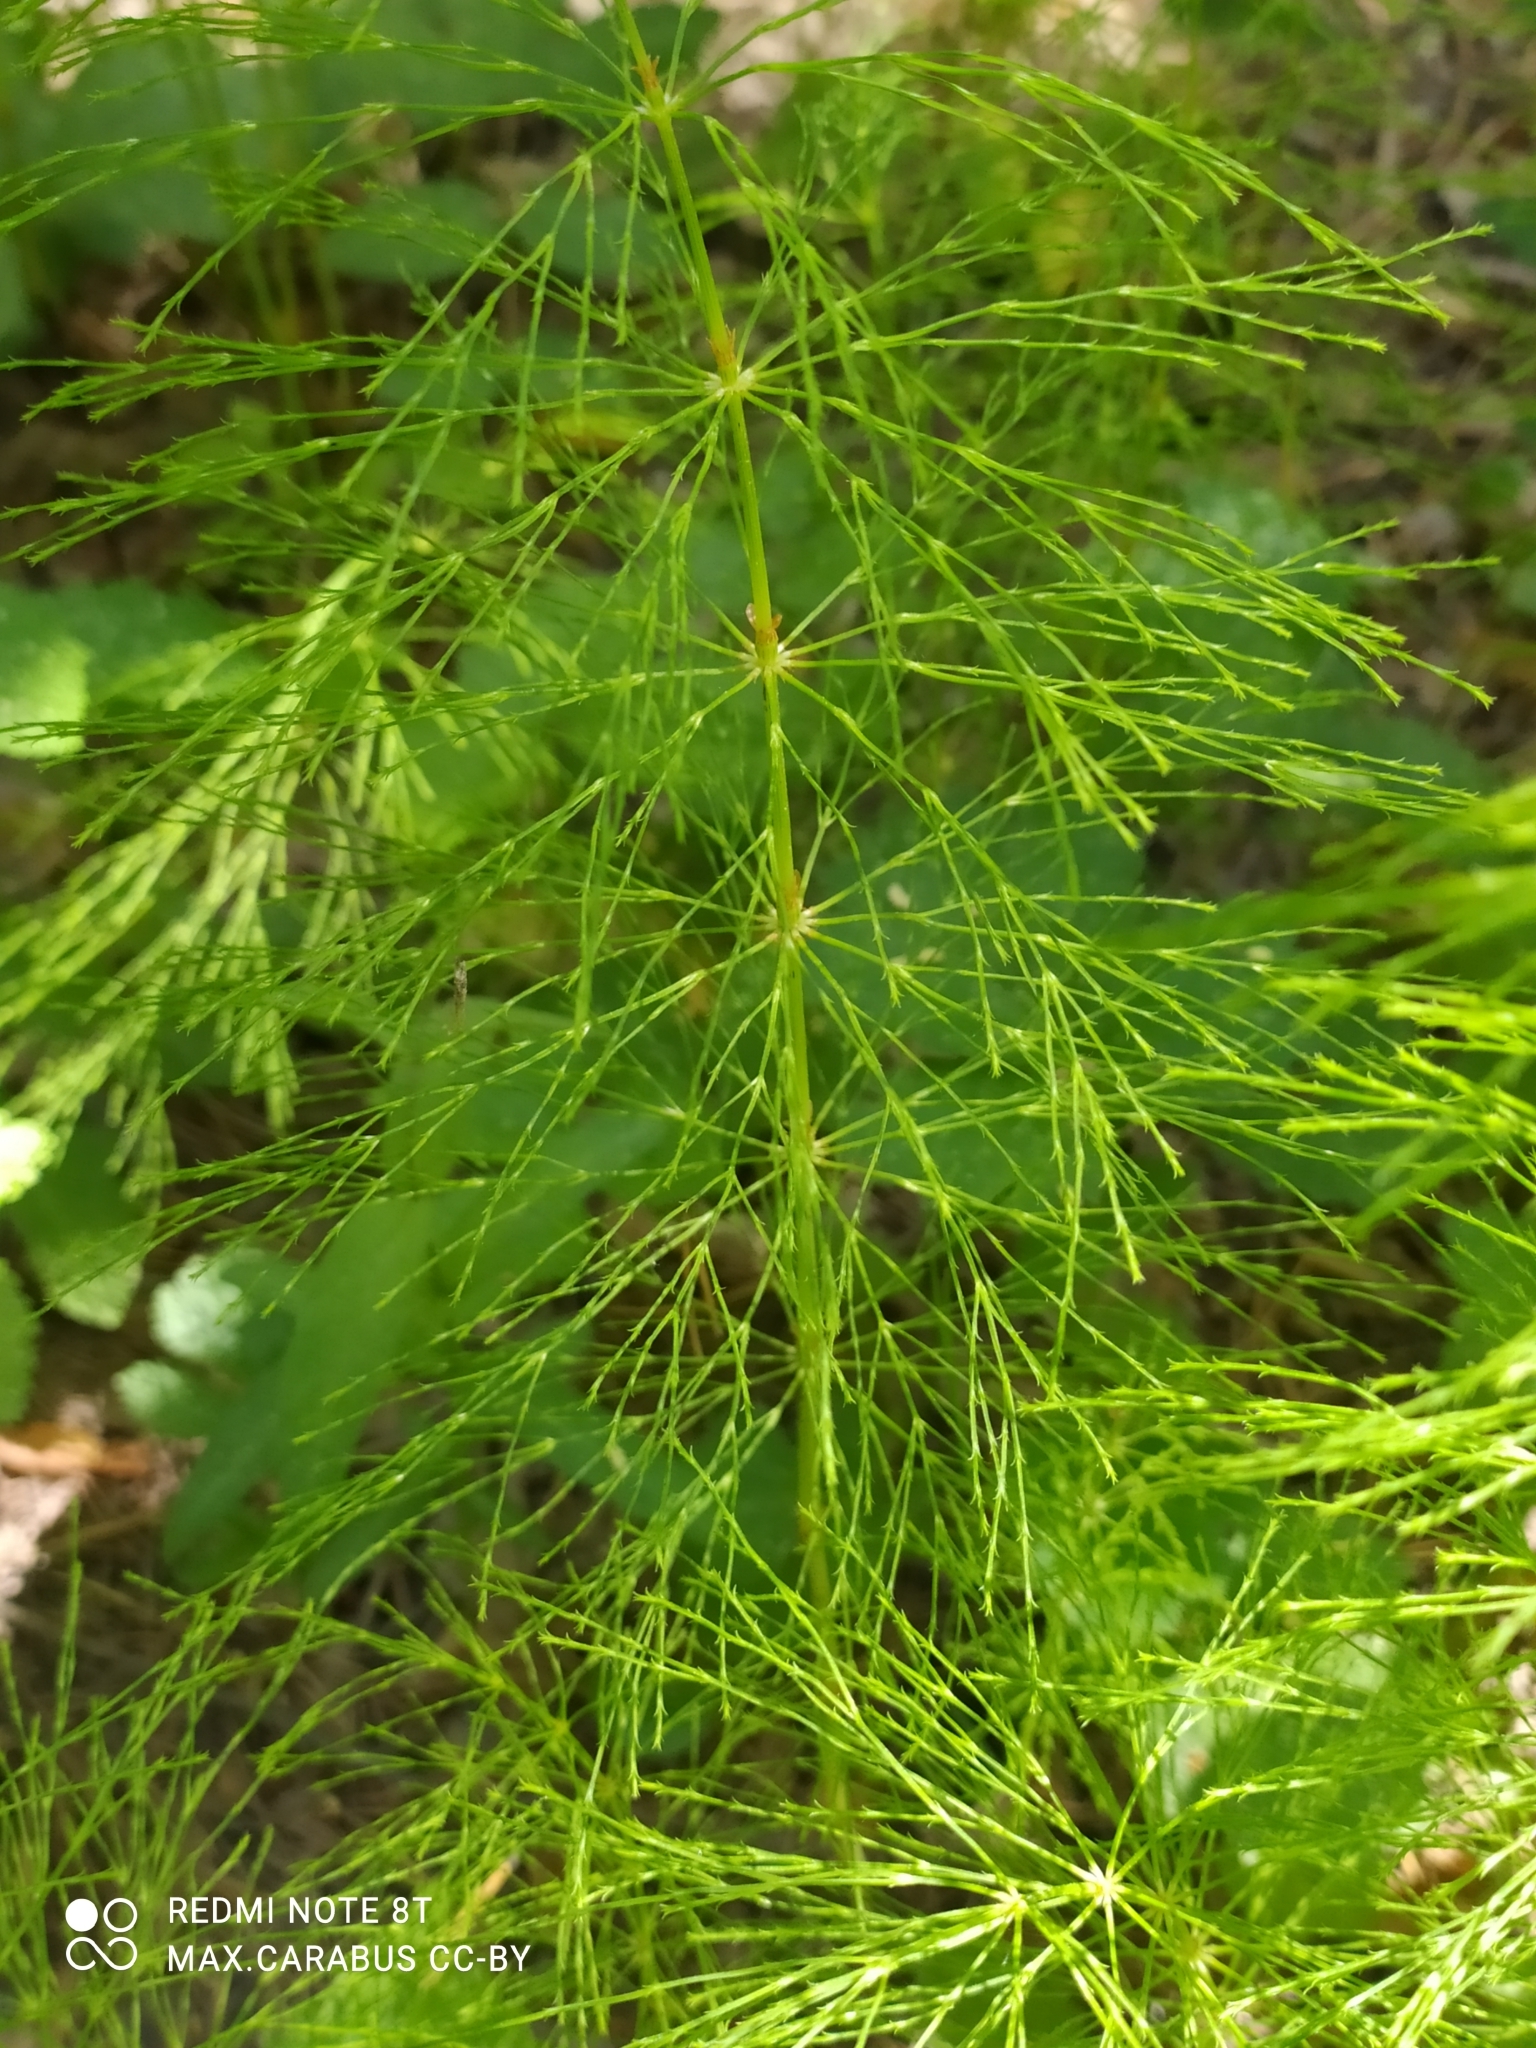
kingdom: Plantae
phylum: Tracheophyta
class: Polypodiopsida
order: Equisetales
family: Equisetaceae
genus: Equisetum
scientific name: Equisetum sylvaticum
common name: Wood horsetail
